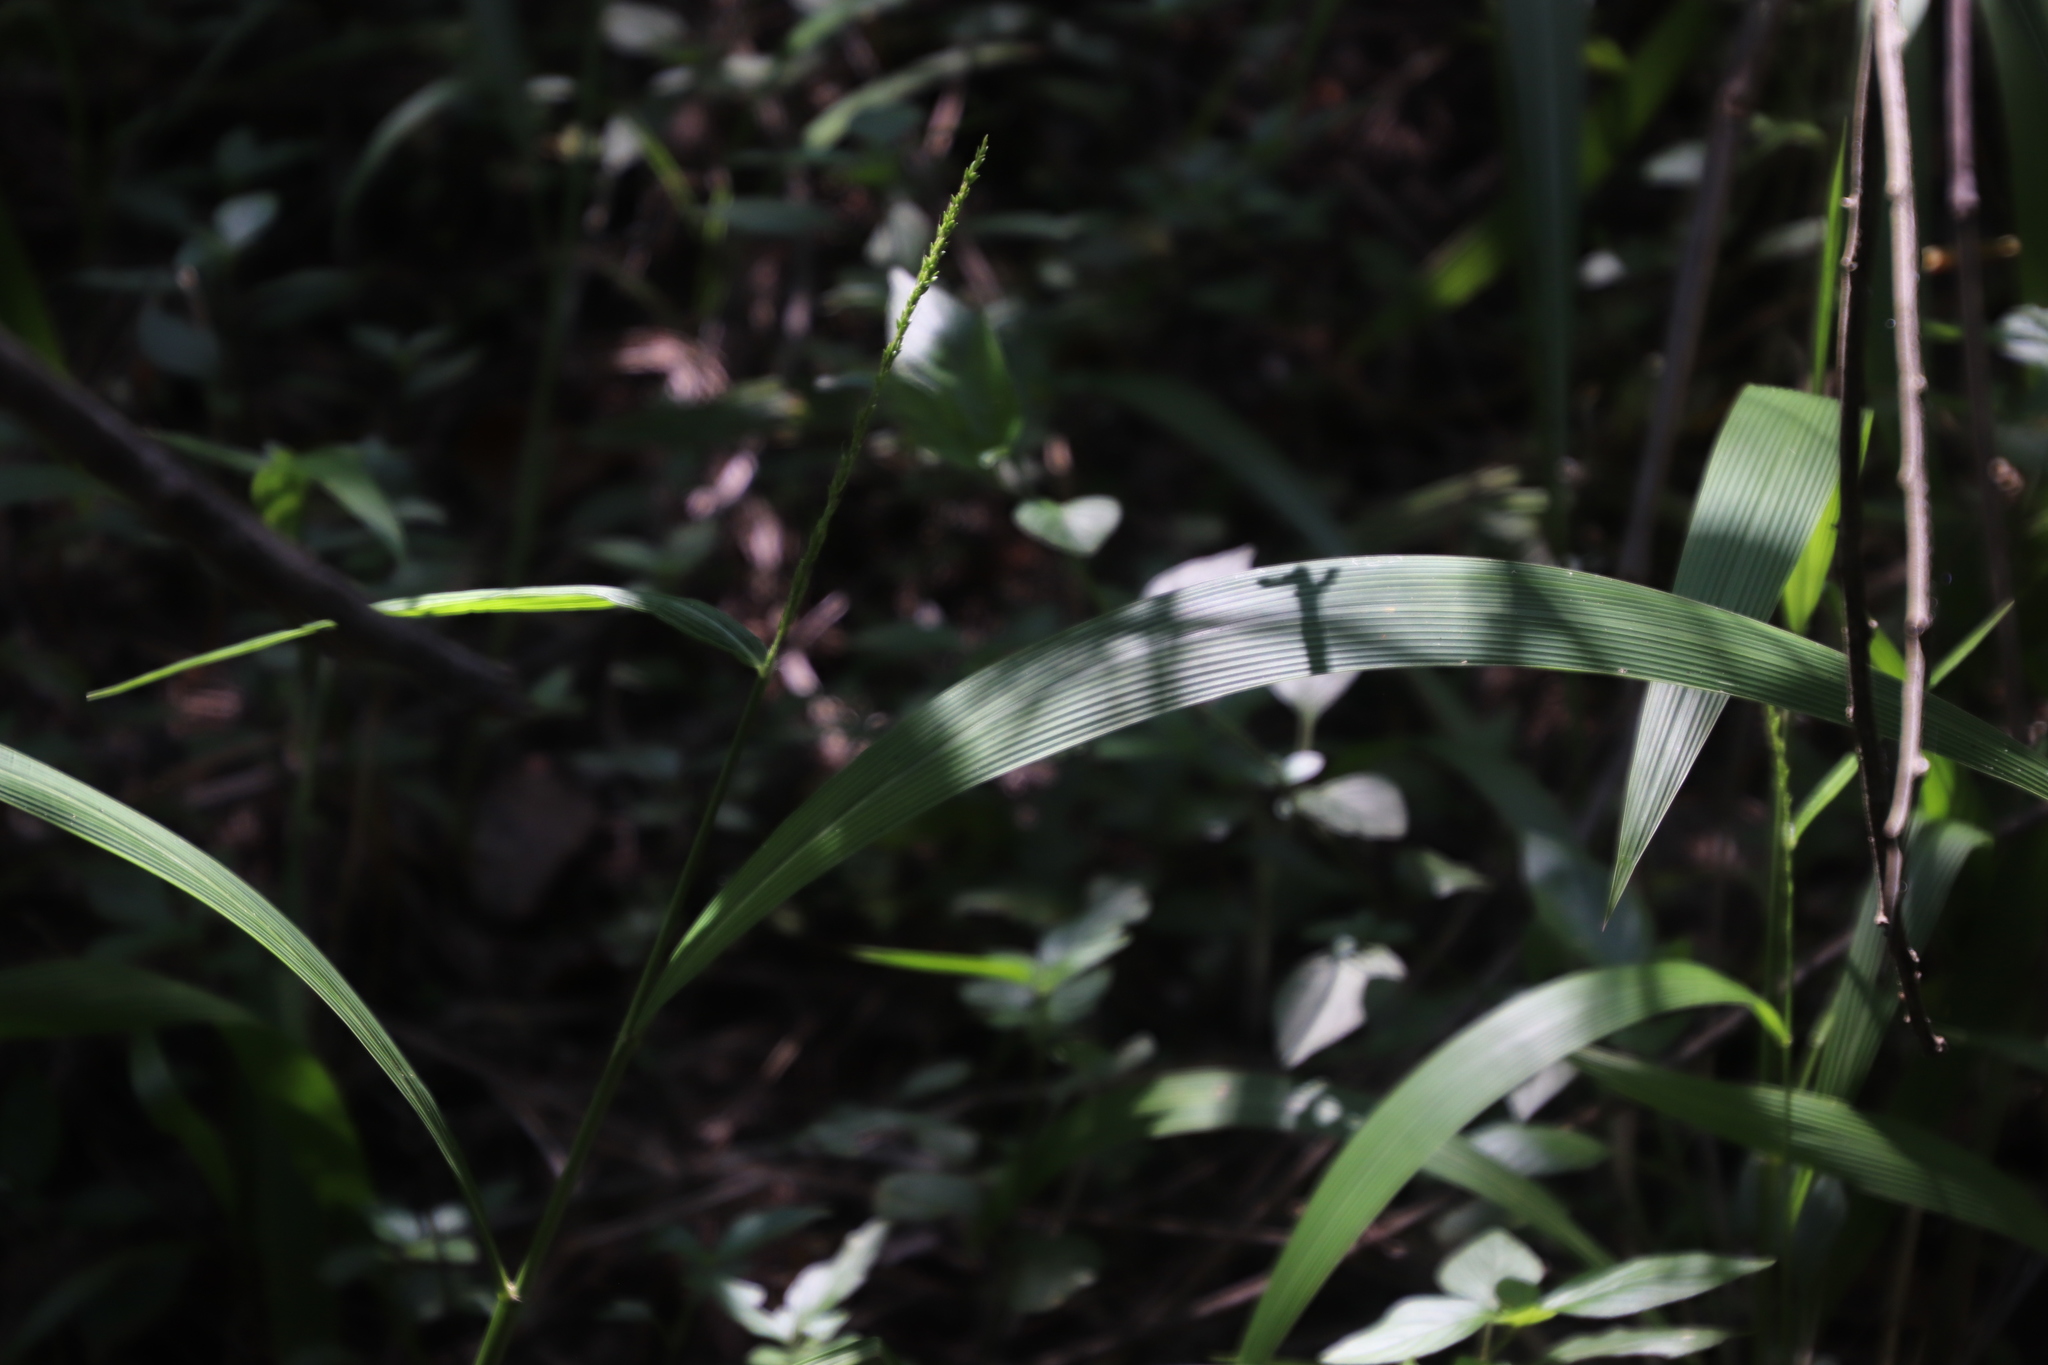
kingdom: Plantae
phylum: Tracheophyta
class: Liliopsida
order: Poales
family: Poaceae
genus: Setaria
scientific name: Setaria megaphylla
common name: Bigleaf bristlegrass
